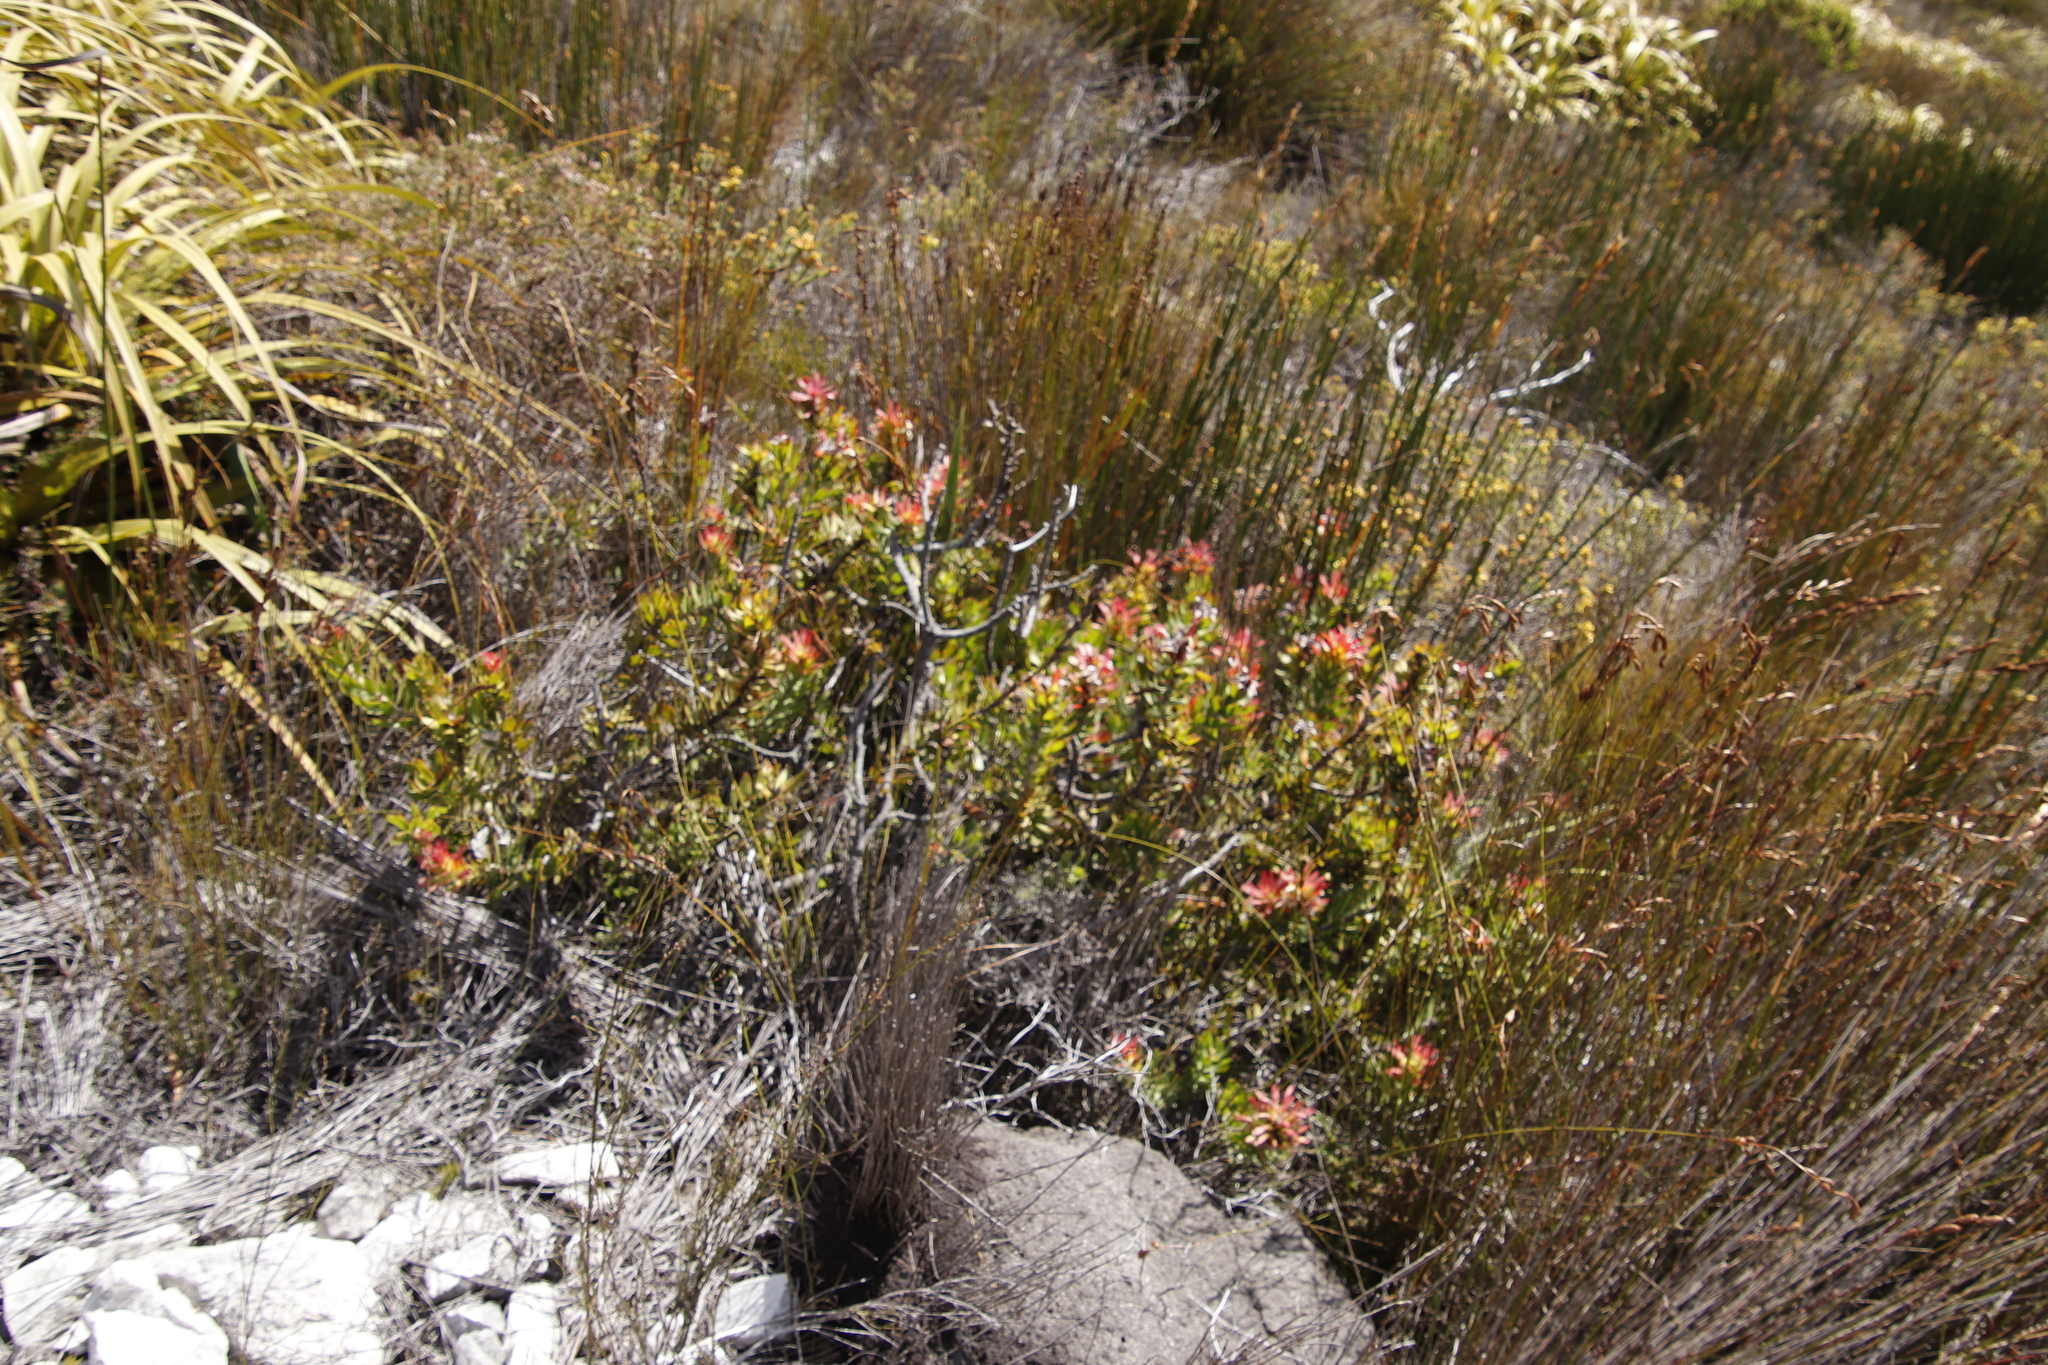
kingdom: Plantae
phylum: Tracheophyta
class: Magnoliopsida
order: Proteales
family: Proteaceae
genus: Mimetes
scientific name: Mimetes cucullatus
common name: Common pagoda
